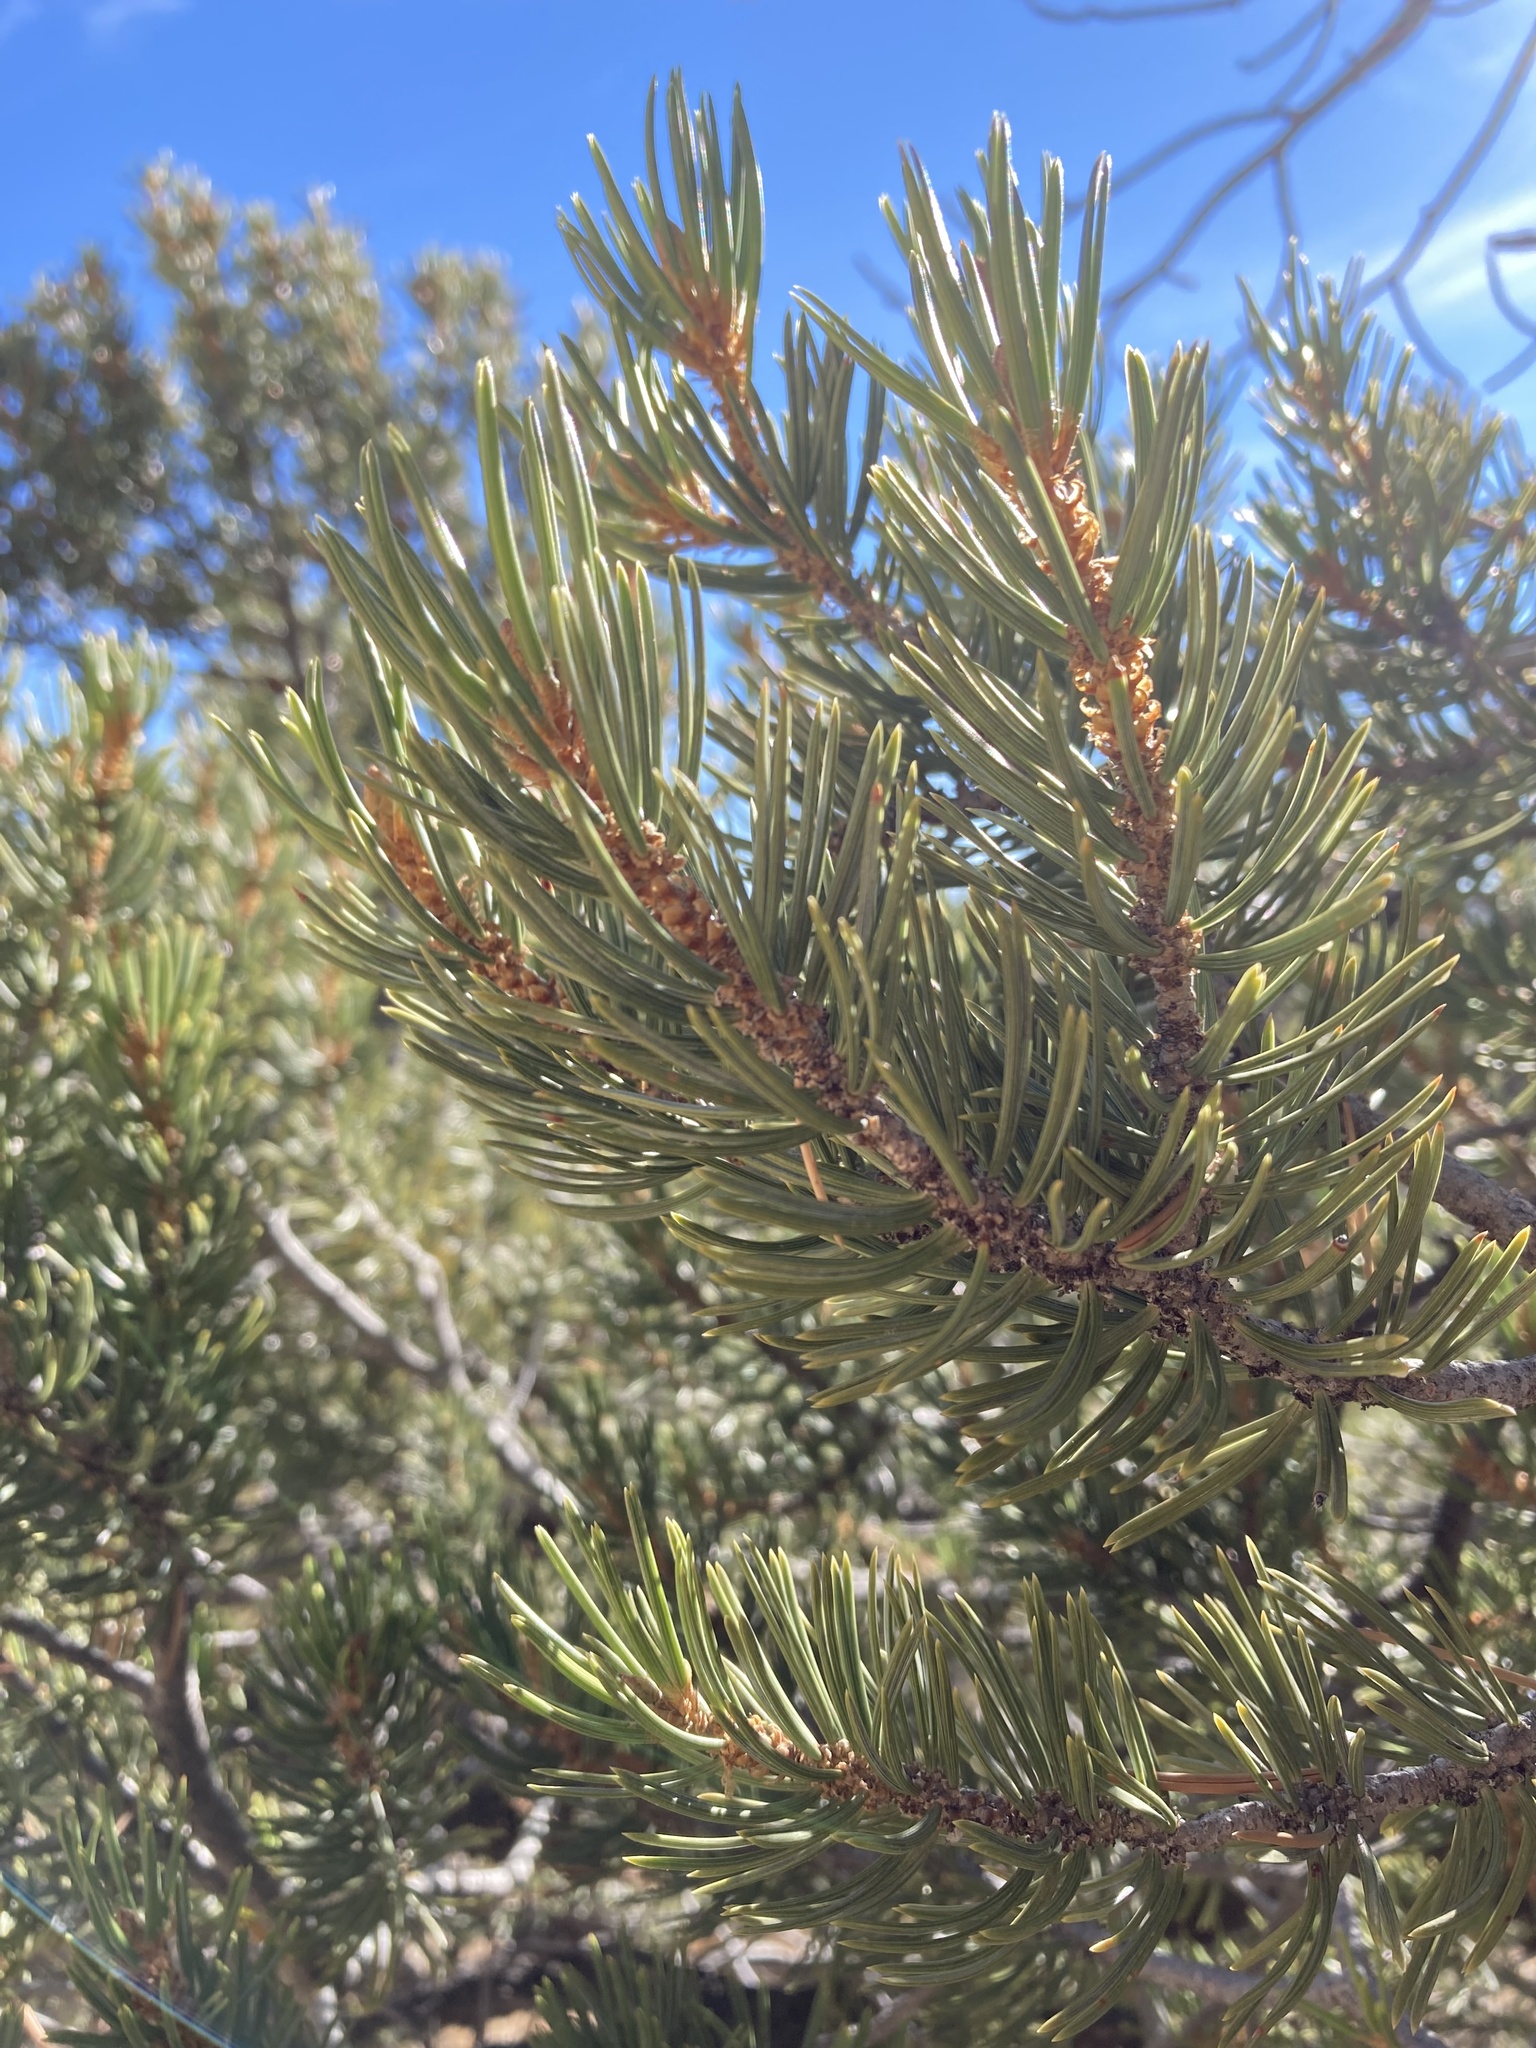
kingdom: Plantae
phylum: Tracheophyta
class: Pinopsida
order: Pinales
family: Pinaceae
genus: Pinus
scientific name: Pinus edulis
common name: Colorado pinyon
